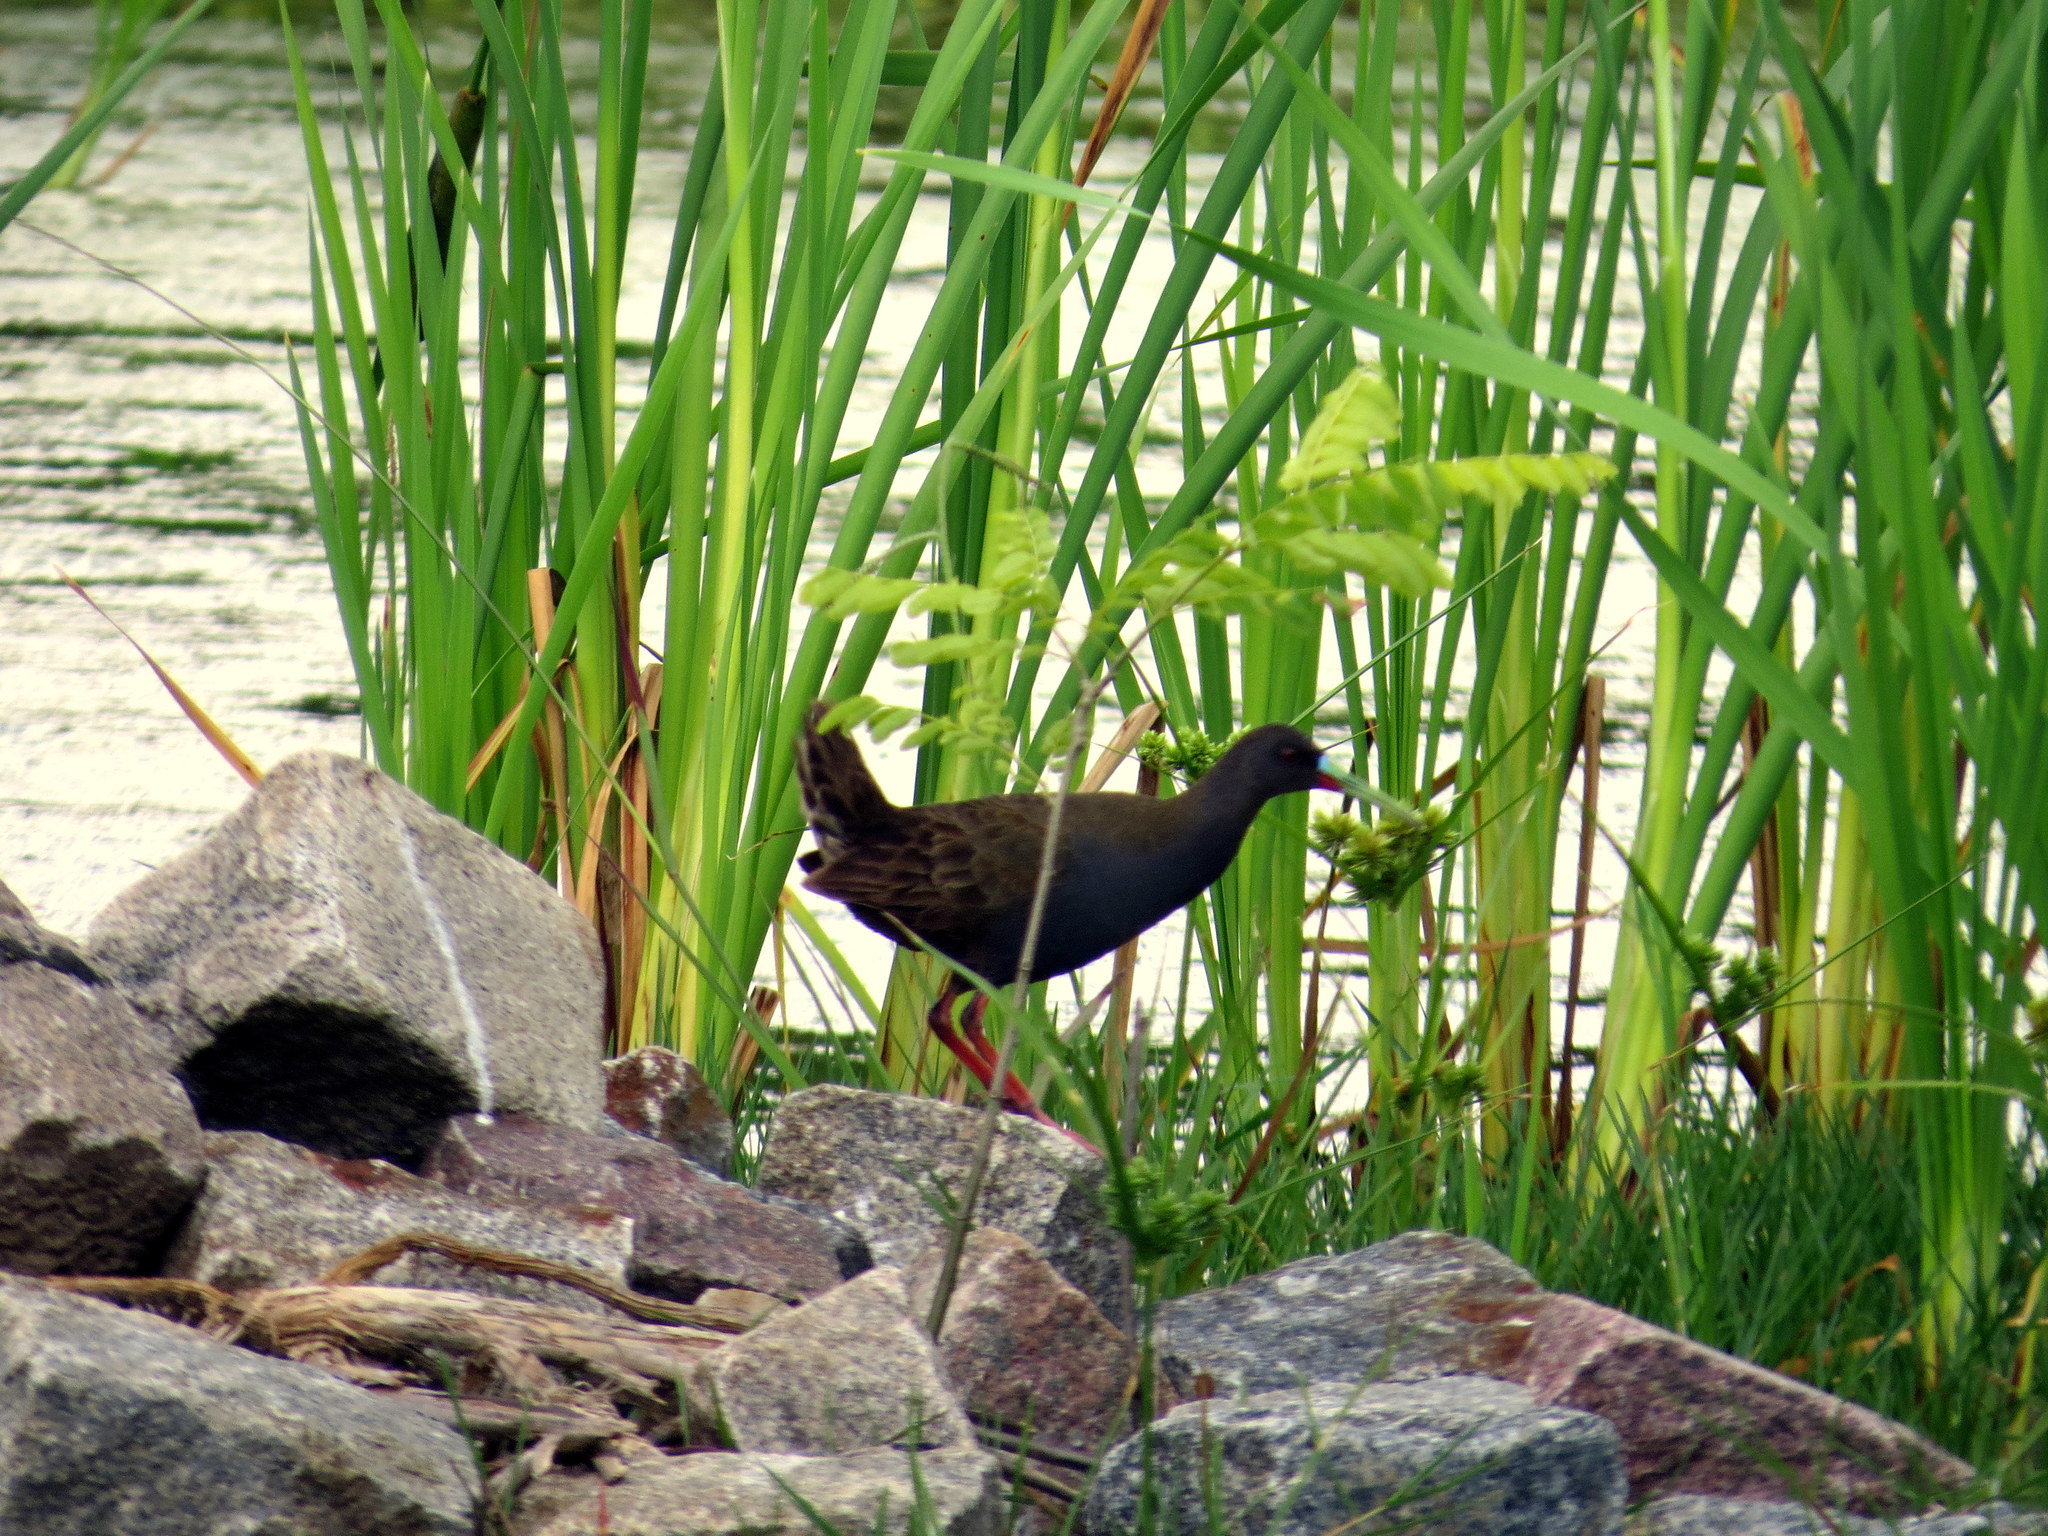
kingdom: Animalia
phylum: Chordata
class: Aves
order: Gruiformes
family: Rallidae
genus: Pardirallus
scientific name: Pardirallus sanguinolentus
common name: Plumbeous rail
